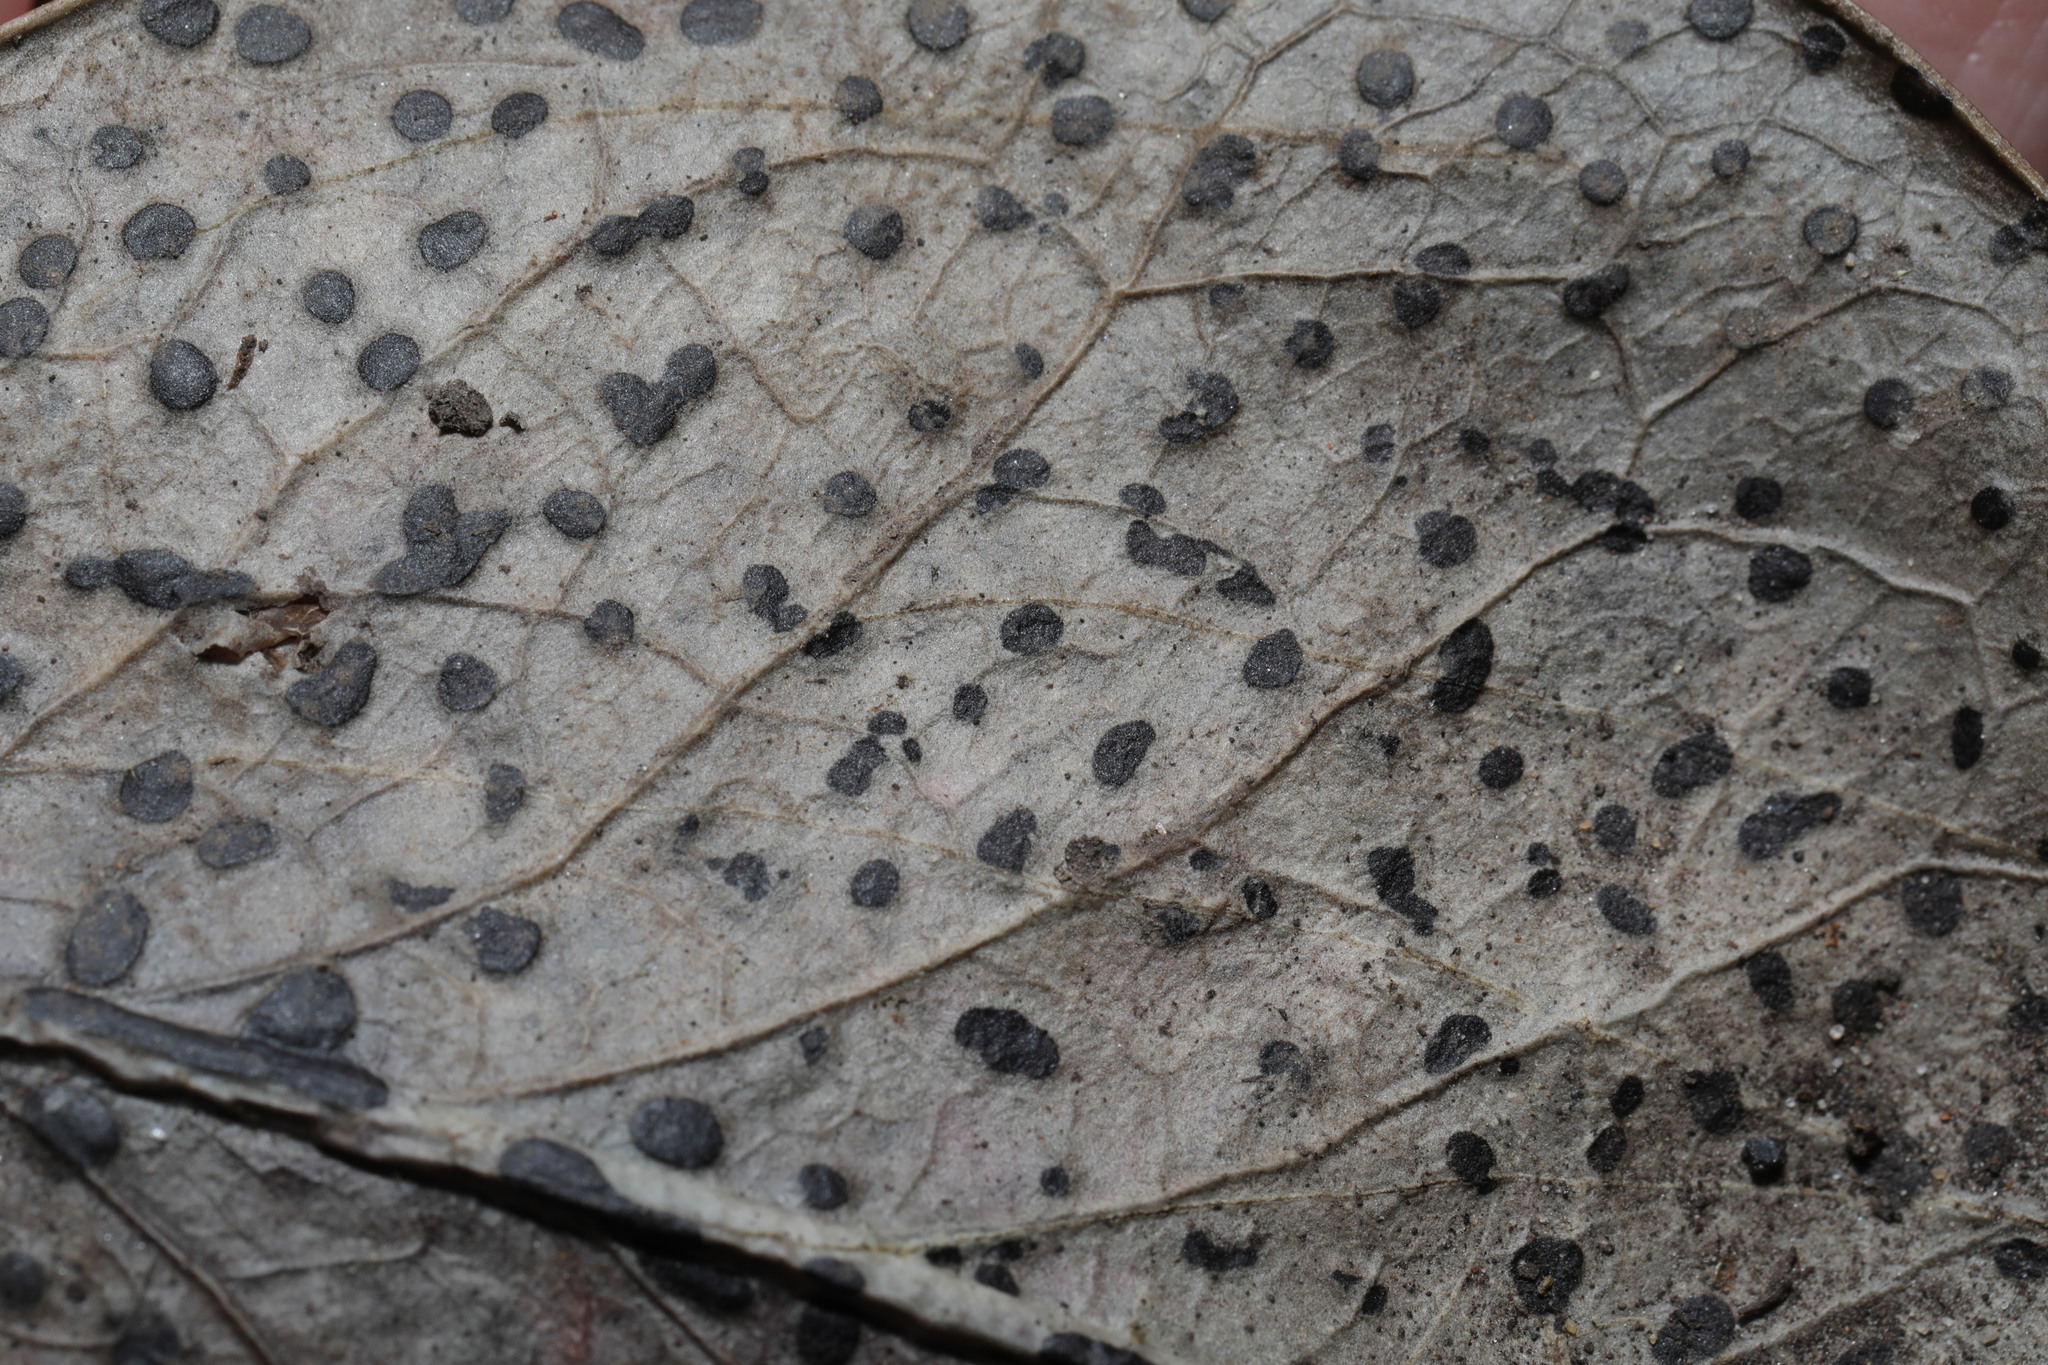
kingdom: Fungi
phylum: Ascomycota
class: Leotiomycetes
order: Helotiales
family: Cenangiaceae
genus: Trochila
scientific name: Trochila ilicina
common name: Holly speckle
